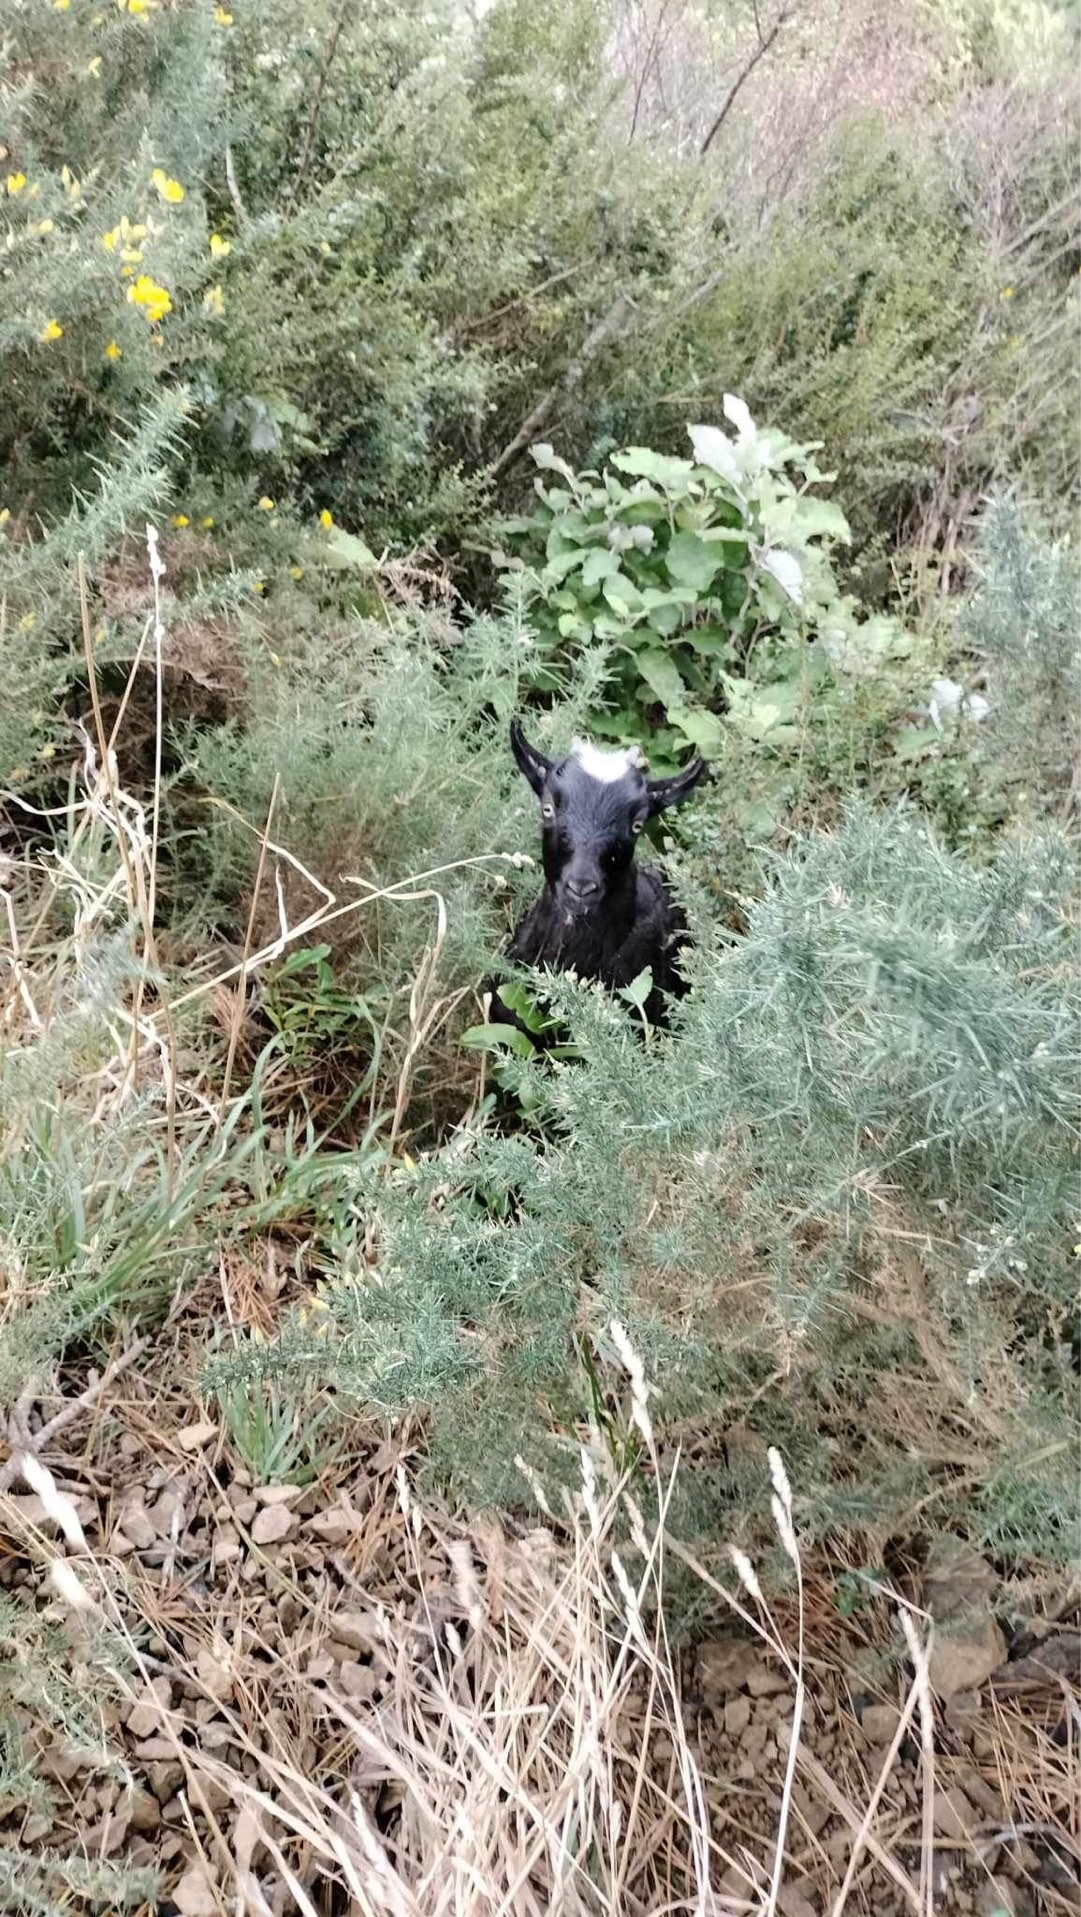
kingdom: Animalia
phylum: Chordata
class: Mammalia
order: Artiodactyla
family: Bovidae
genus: Capra
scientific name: Capra hircus
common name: Domestic goat
